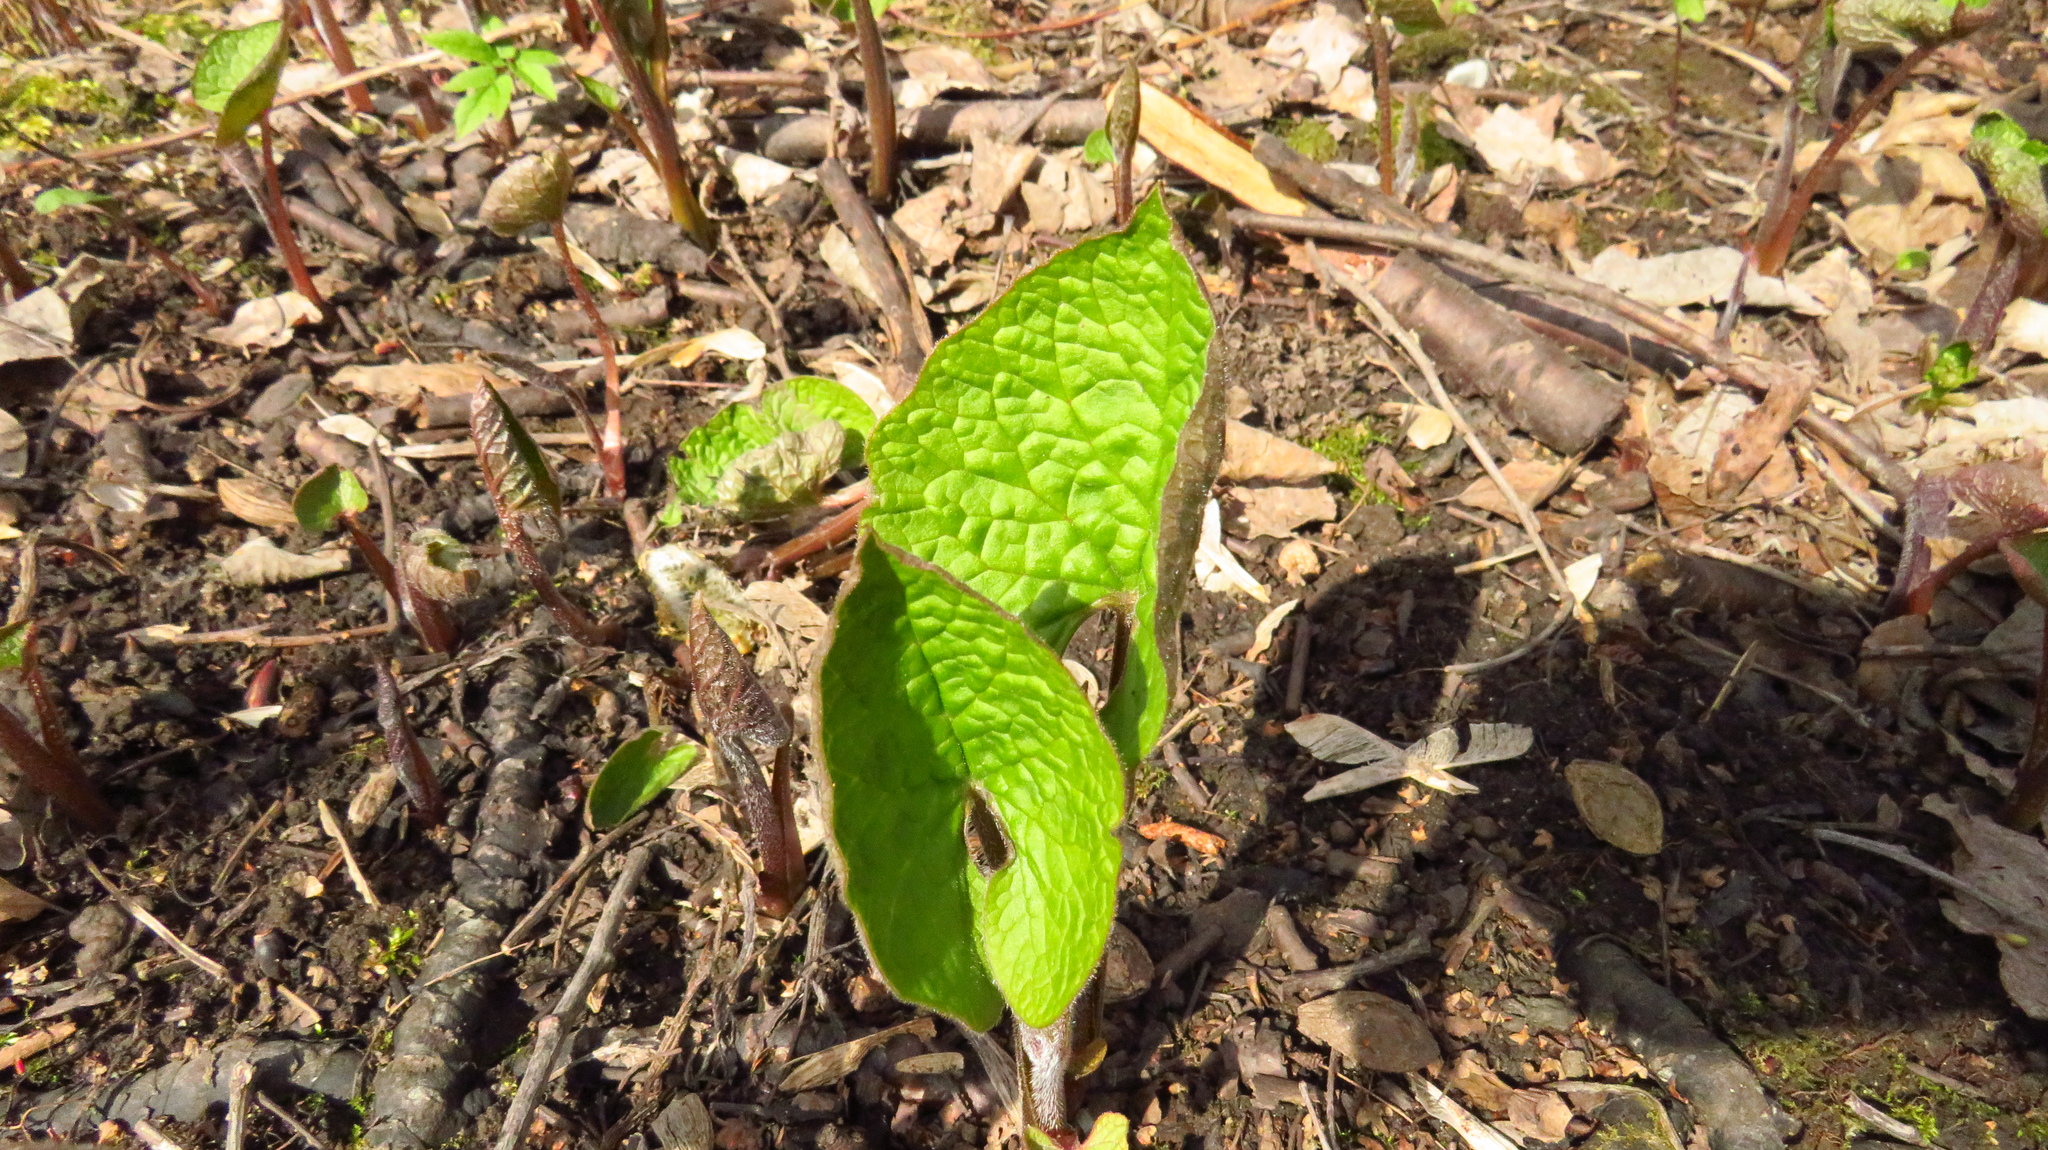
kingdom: Plantae
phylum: Tracheophyta
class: Magnoliopsida
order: Asterales
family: Asteraceae
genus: Tussilago
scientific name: Tussilago farfara
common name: Coltsfoot
